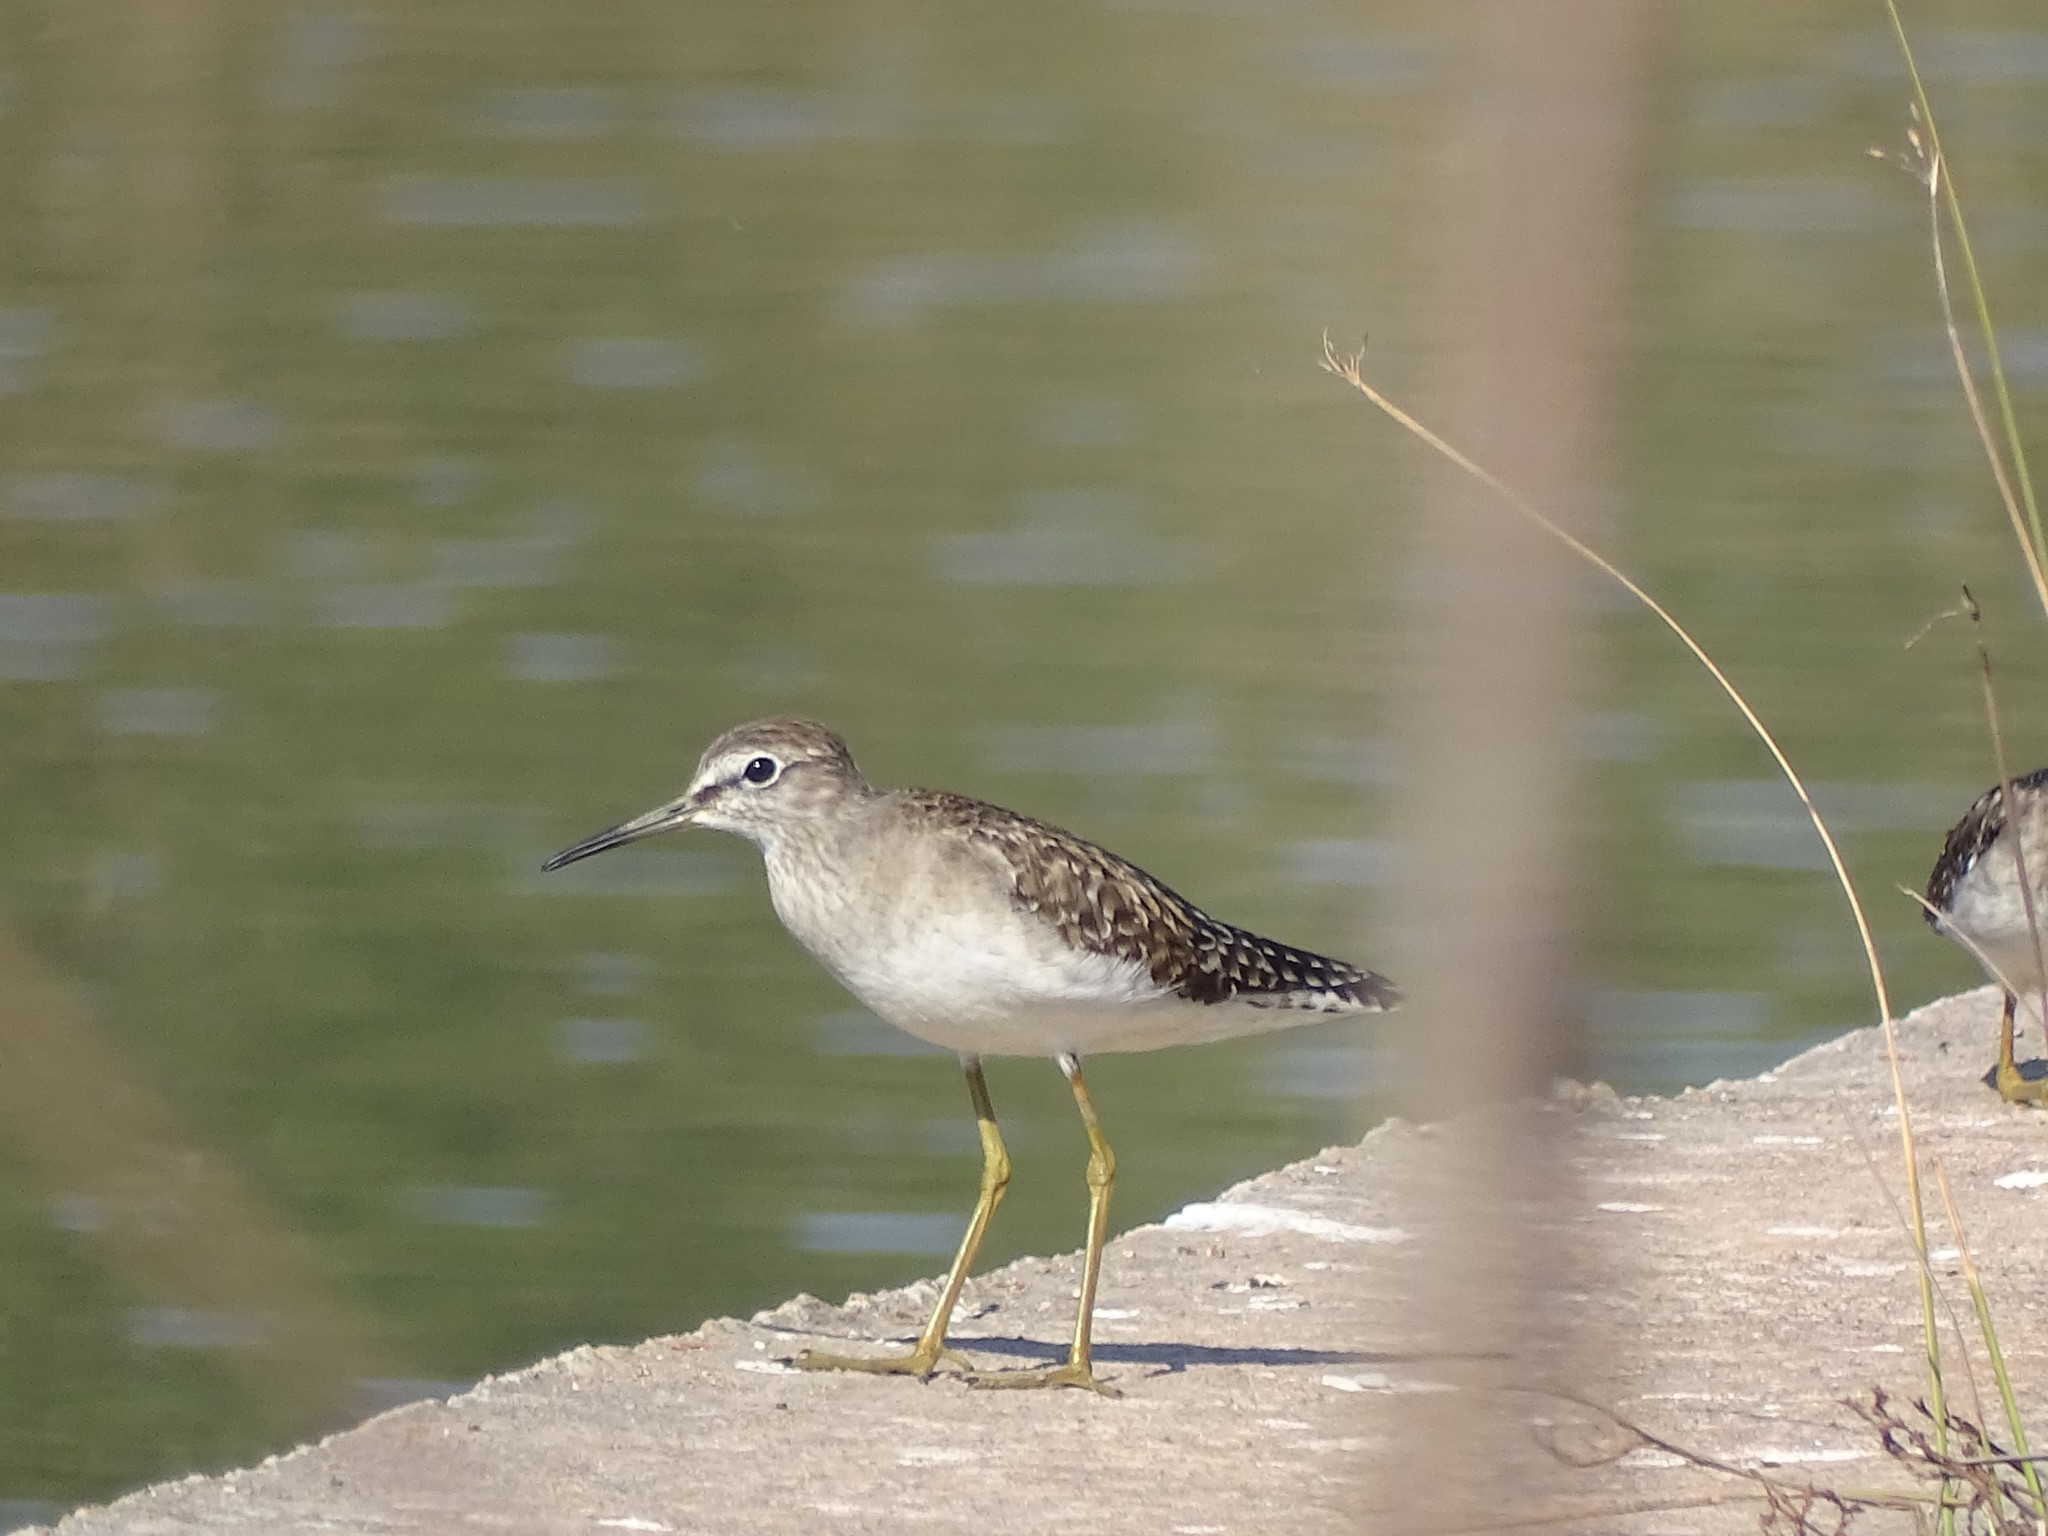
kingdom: Animalia
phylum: Chordata
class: Aves
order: Charadriiformes
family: Scolopacidae
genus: Tringa
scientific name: Tringa glareola
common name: Wood sandpiper
